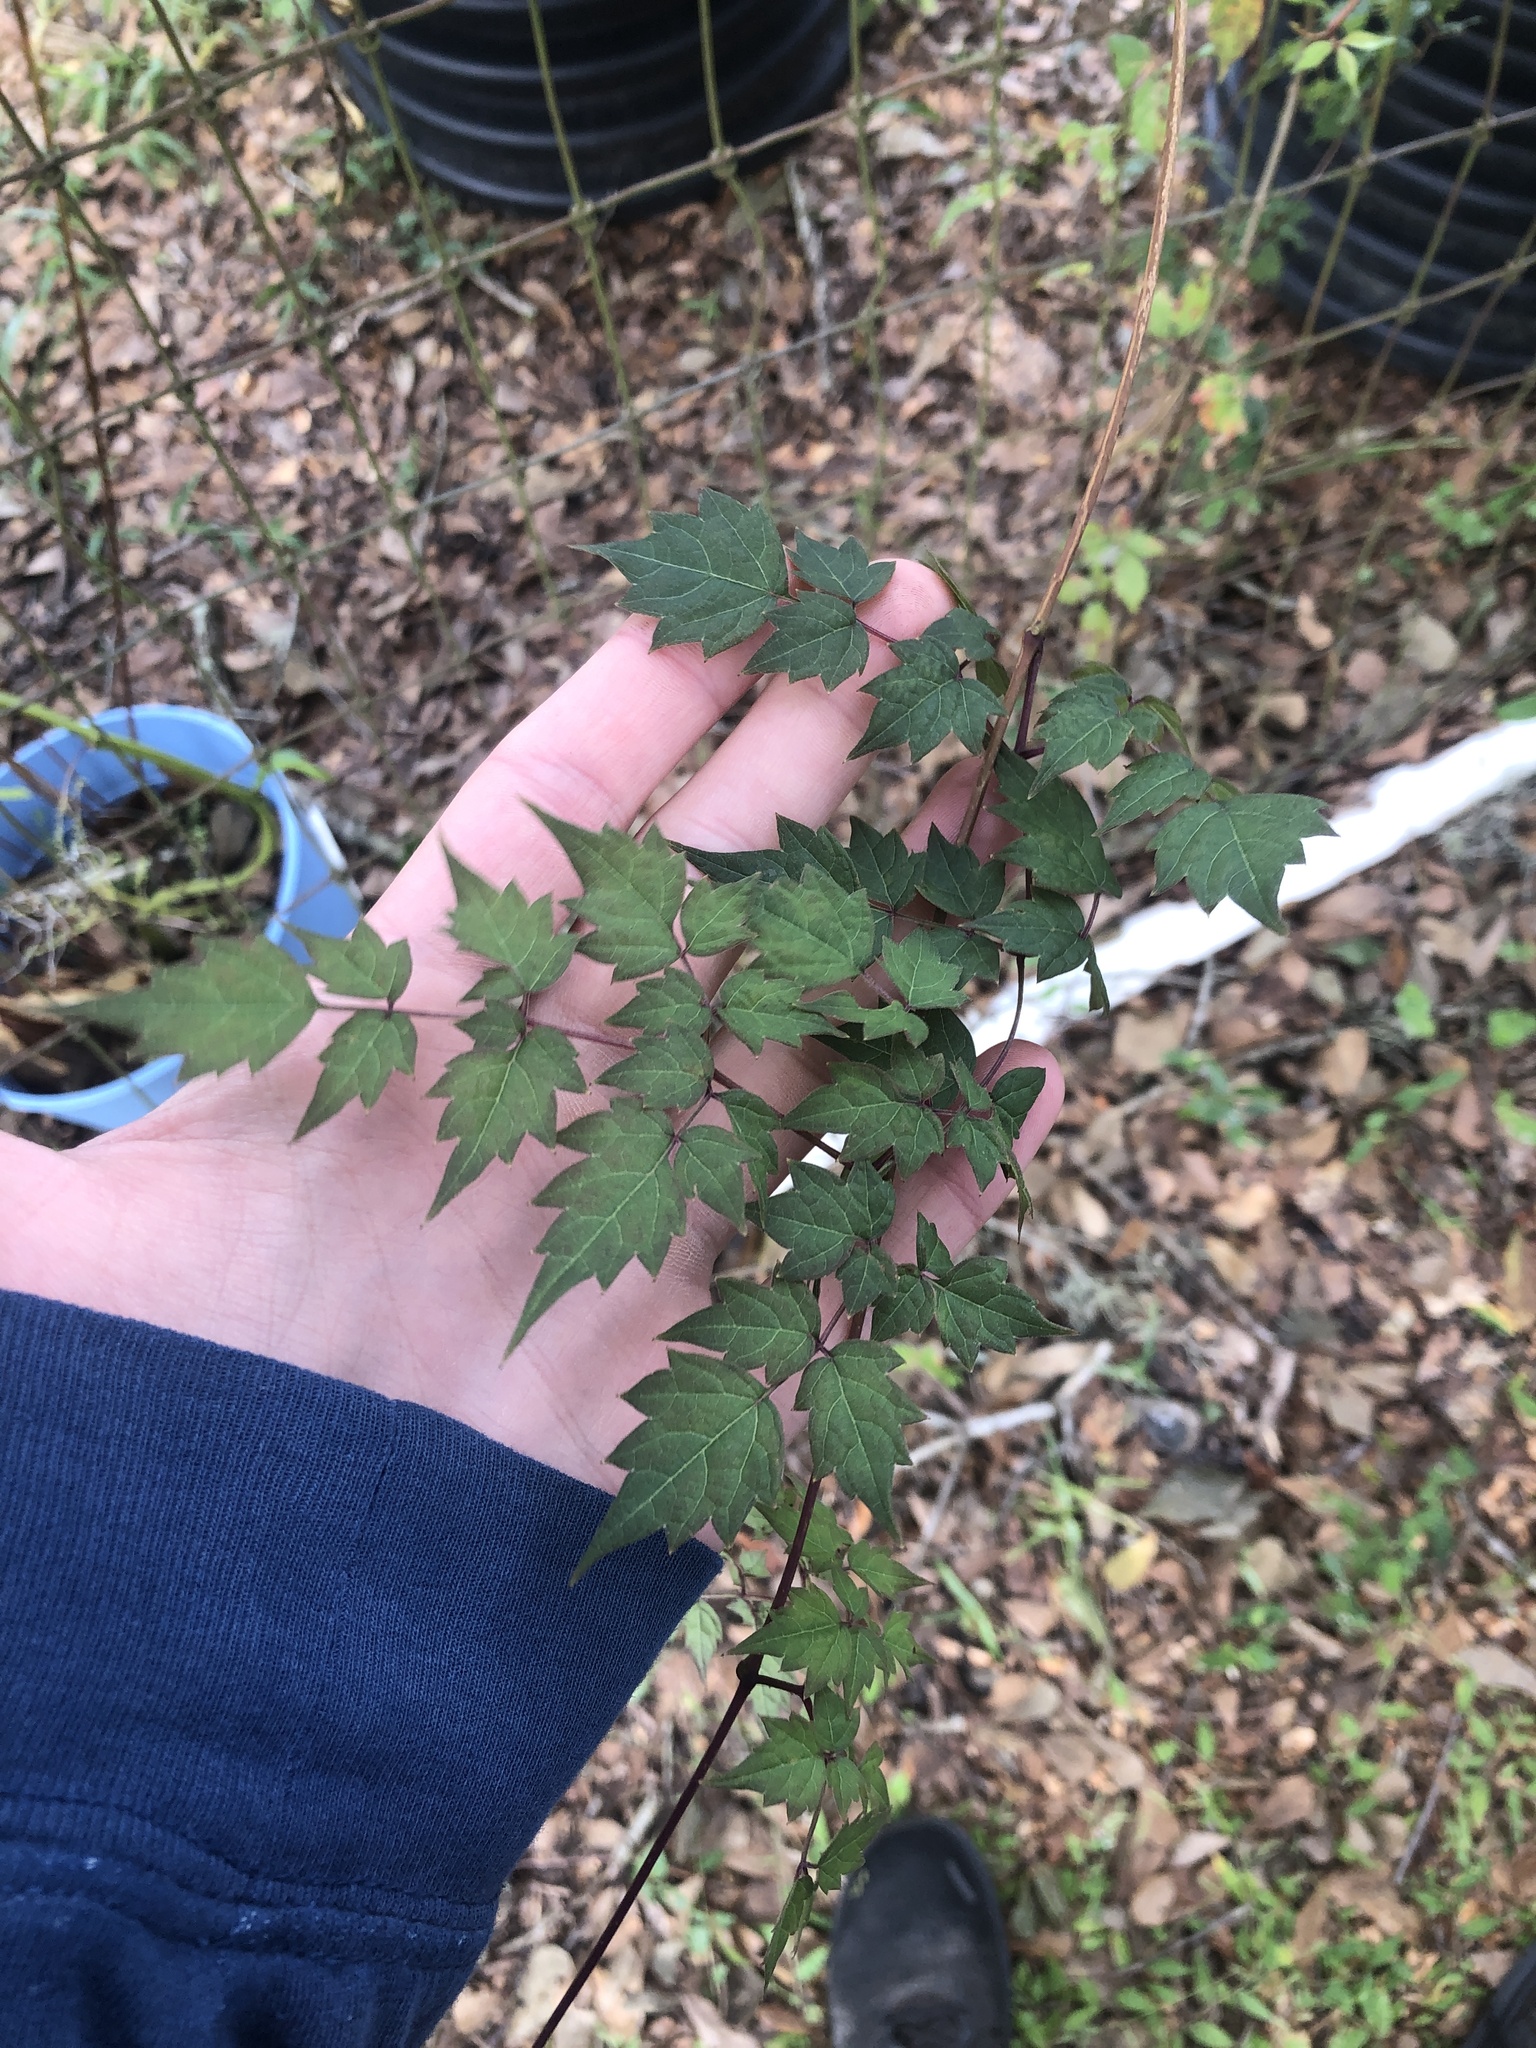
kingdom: Plantae
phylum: Tracheophyta
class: Magnoliopsida
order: Vitales
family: Vitaceae
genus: Nekemias
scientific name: Nekemias arborea
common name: Peppervine
